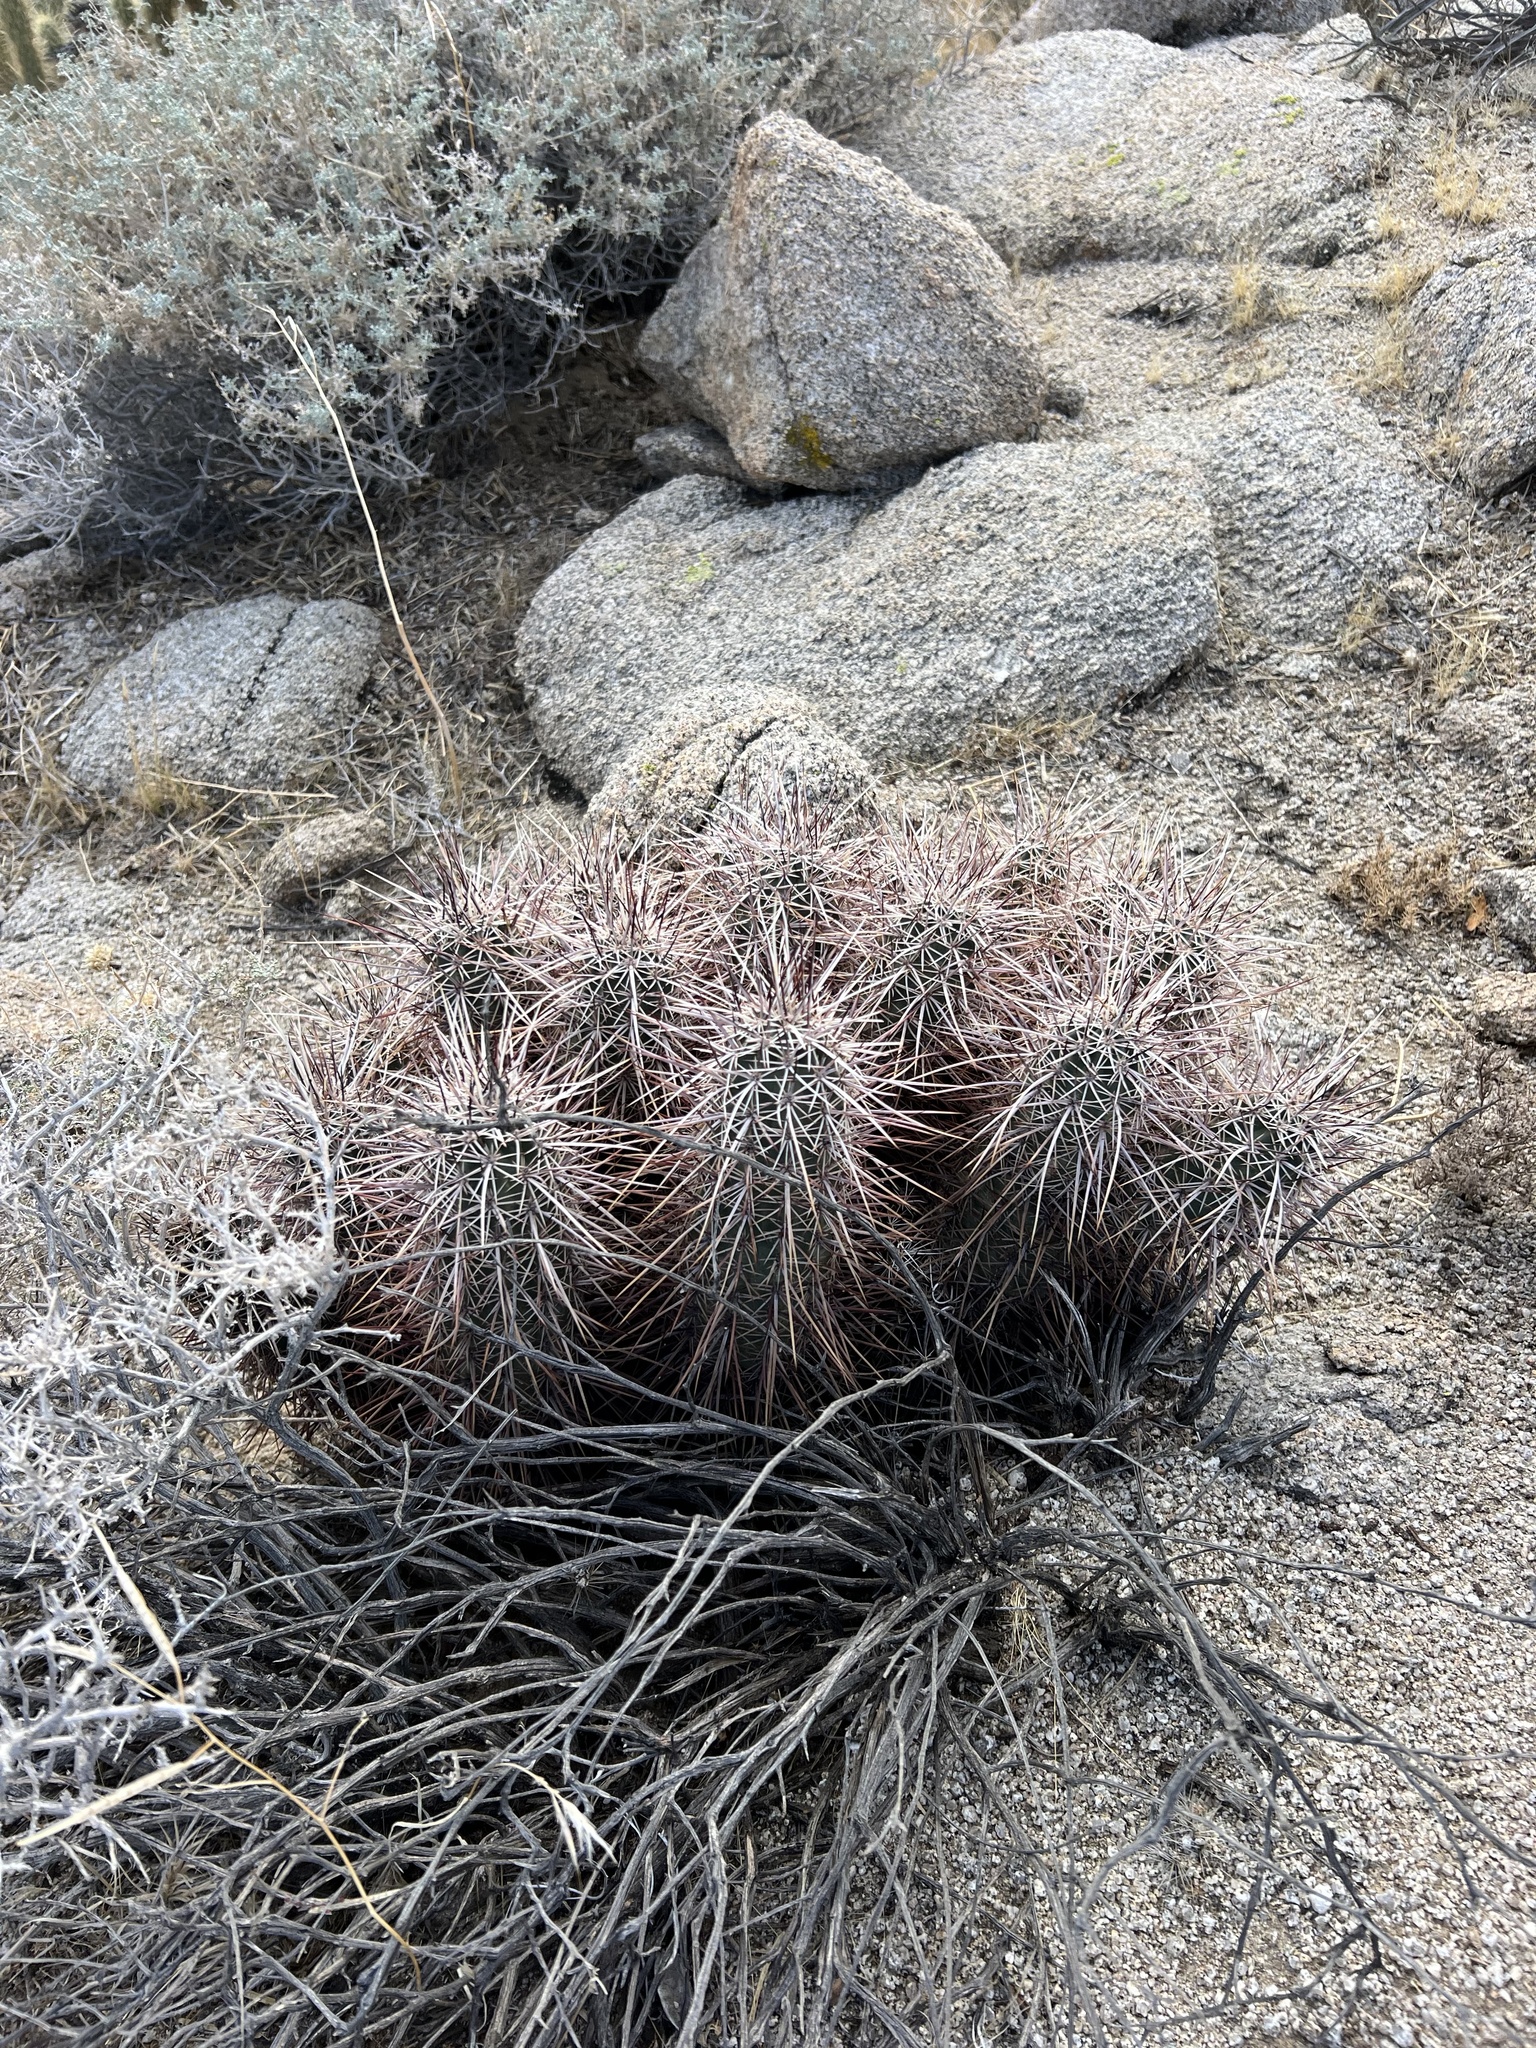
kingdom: Plantae
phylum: Tracheophyta
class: Magnoliopsida
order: Caryophyllales
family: Cactaceae
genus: Echinocereus
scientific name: Echinocereus engelmannii
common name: Engelmann's hedgehog cactus
